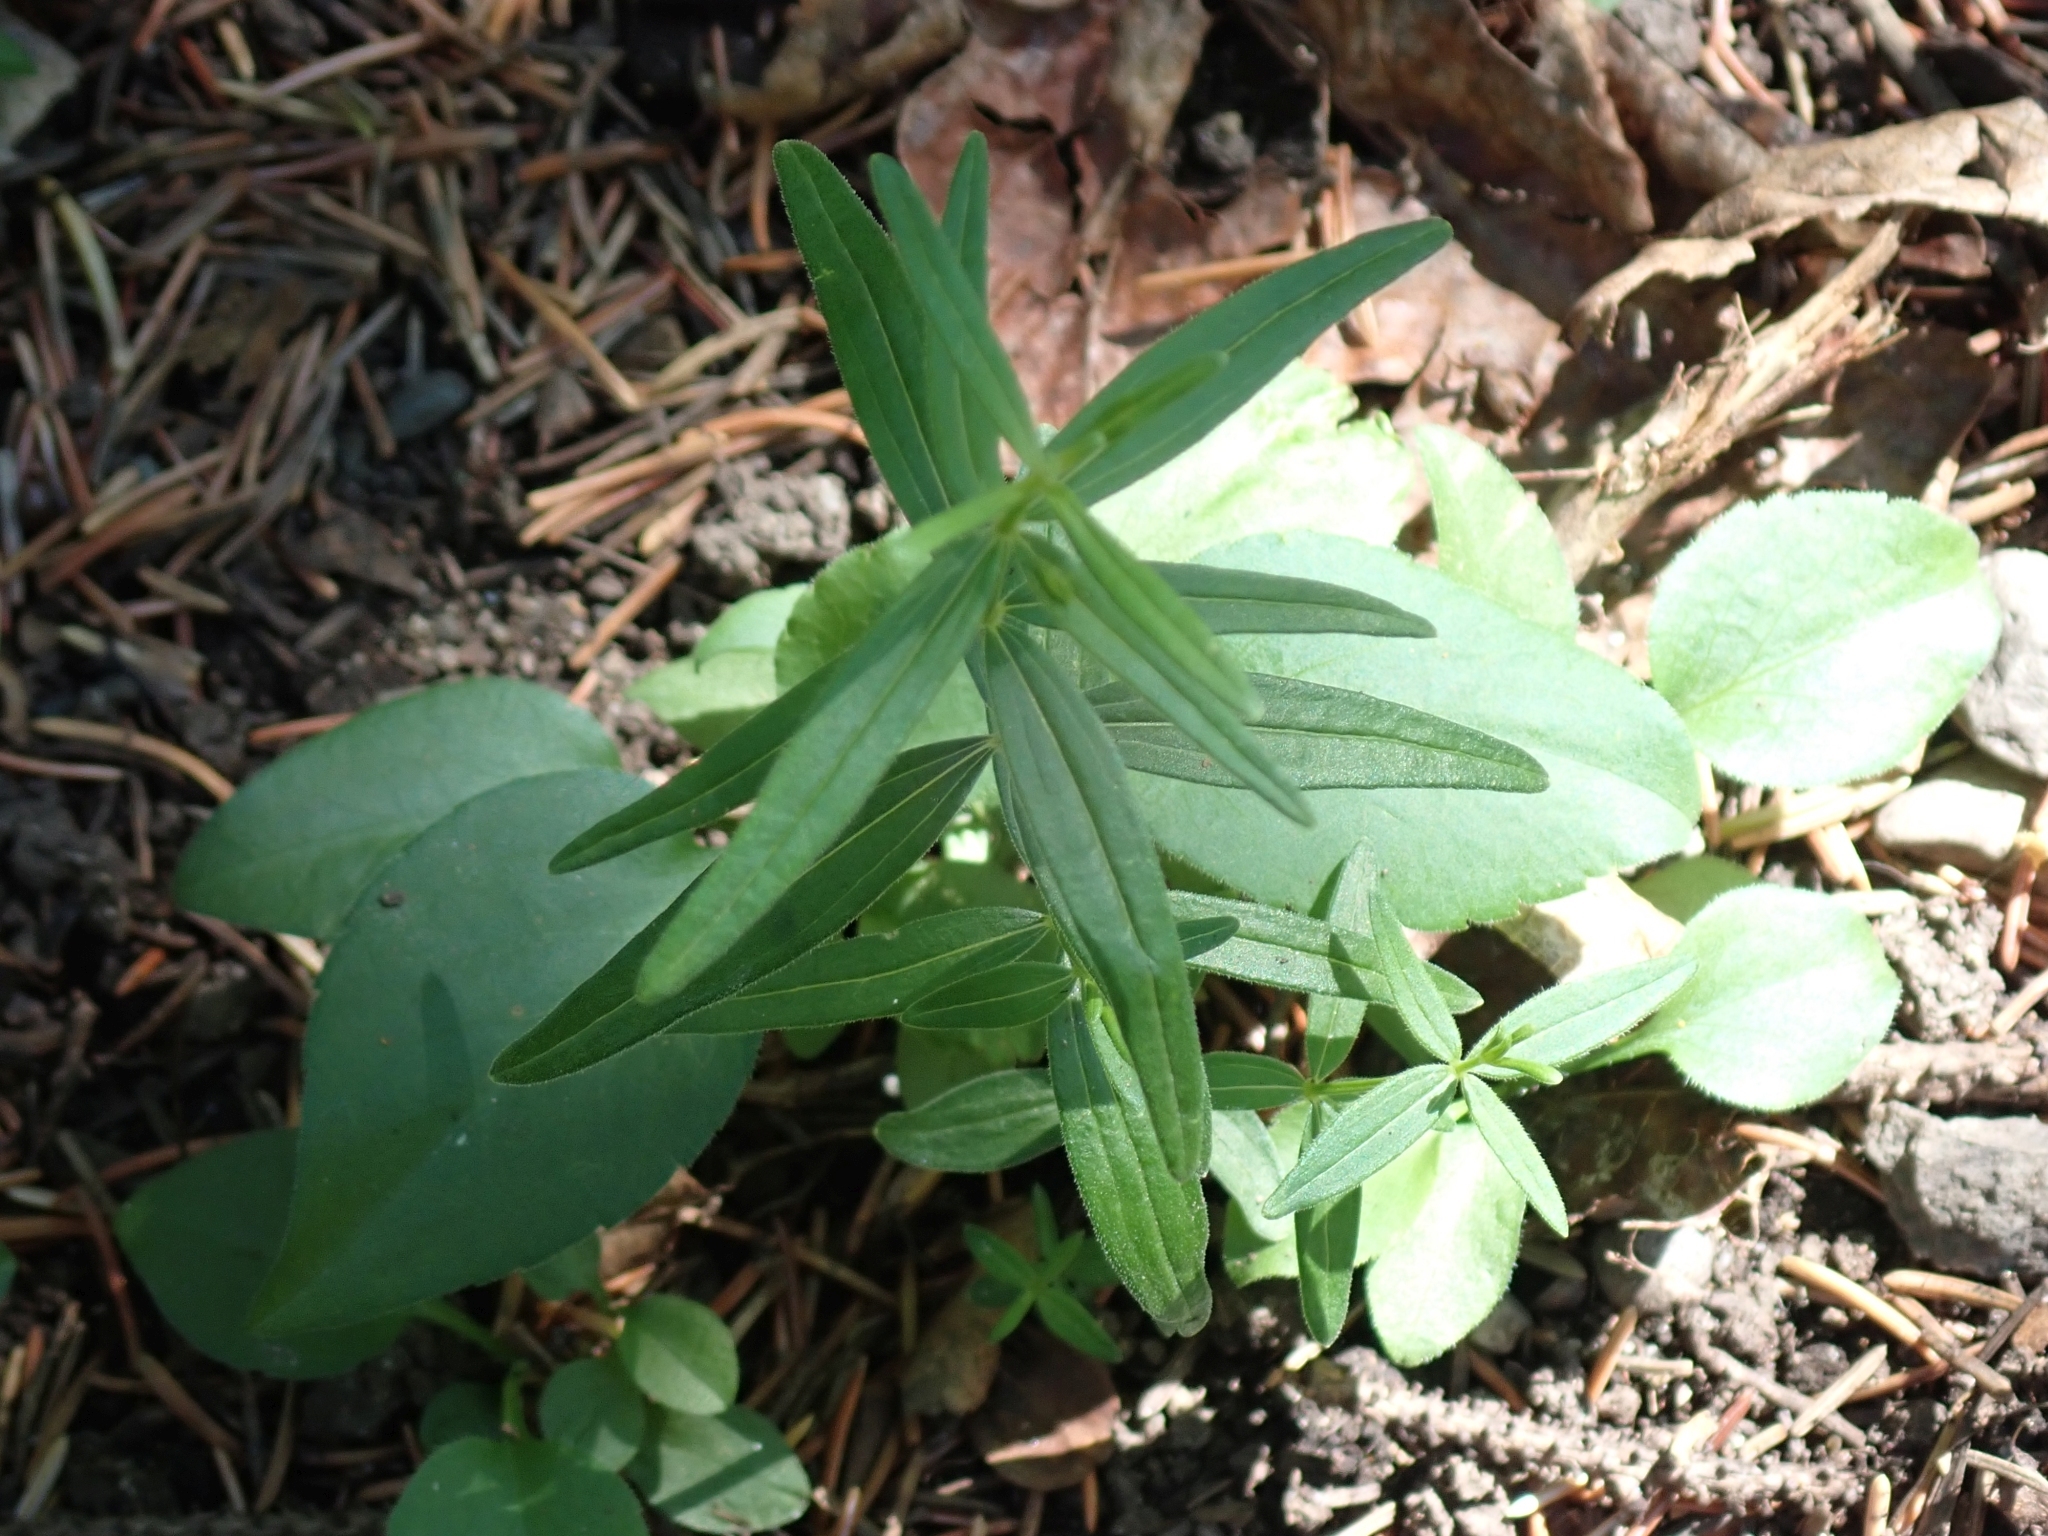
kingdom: Plantae
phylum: Tracheophyta
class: Magnoliopsida
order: Gentianales
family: Rubiaceae
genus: Galium
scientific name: Galium boreale
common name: Northern bedstraw
